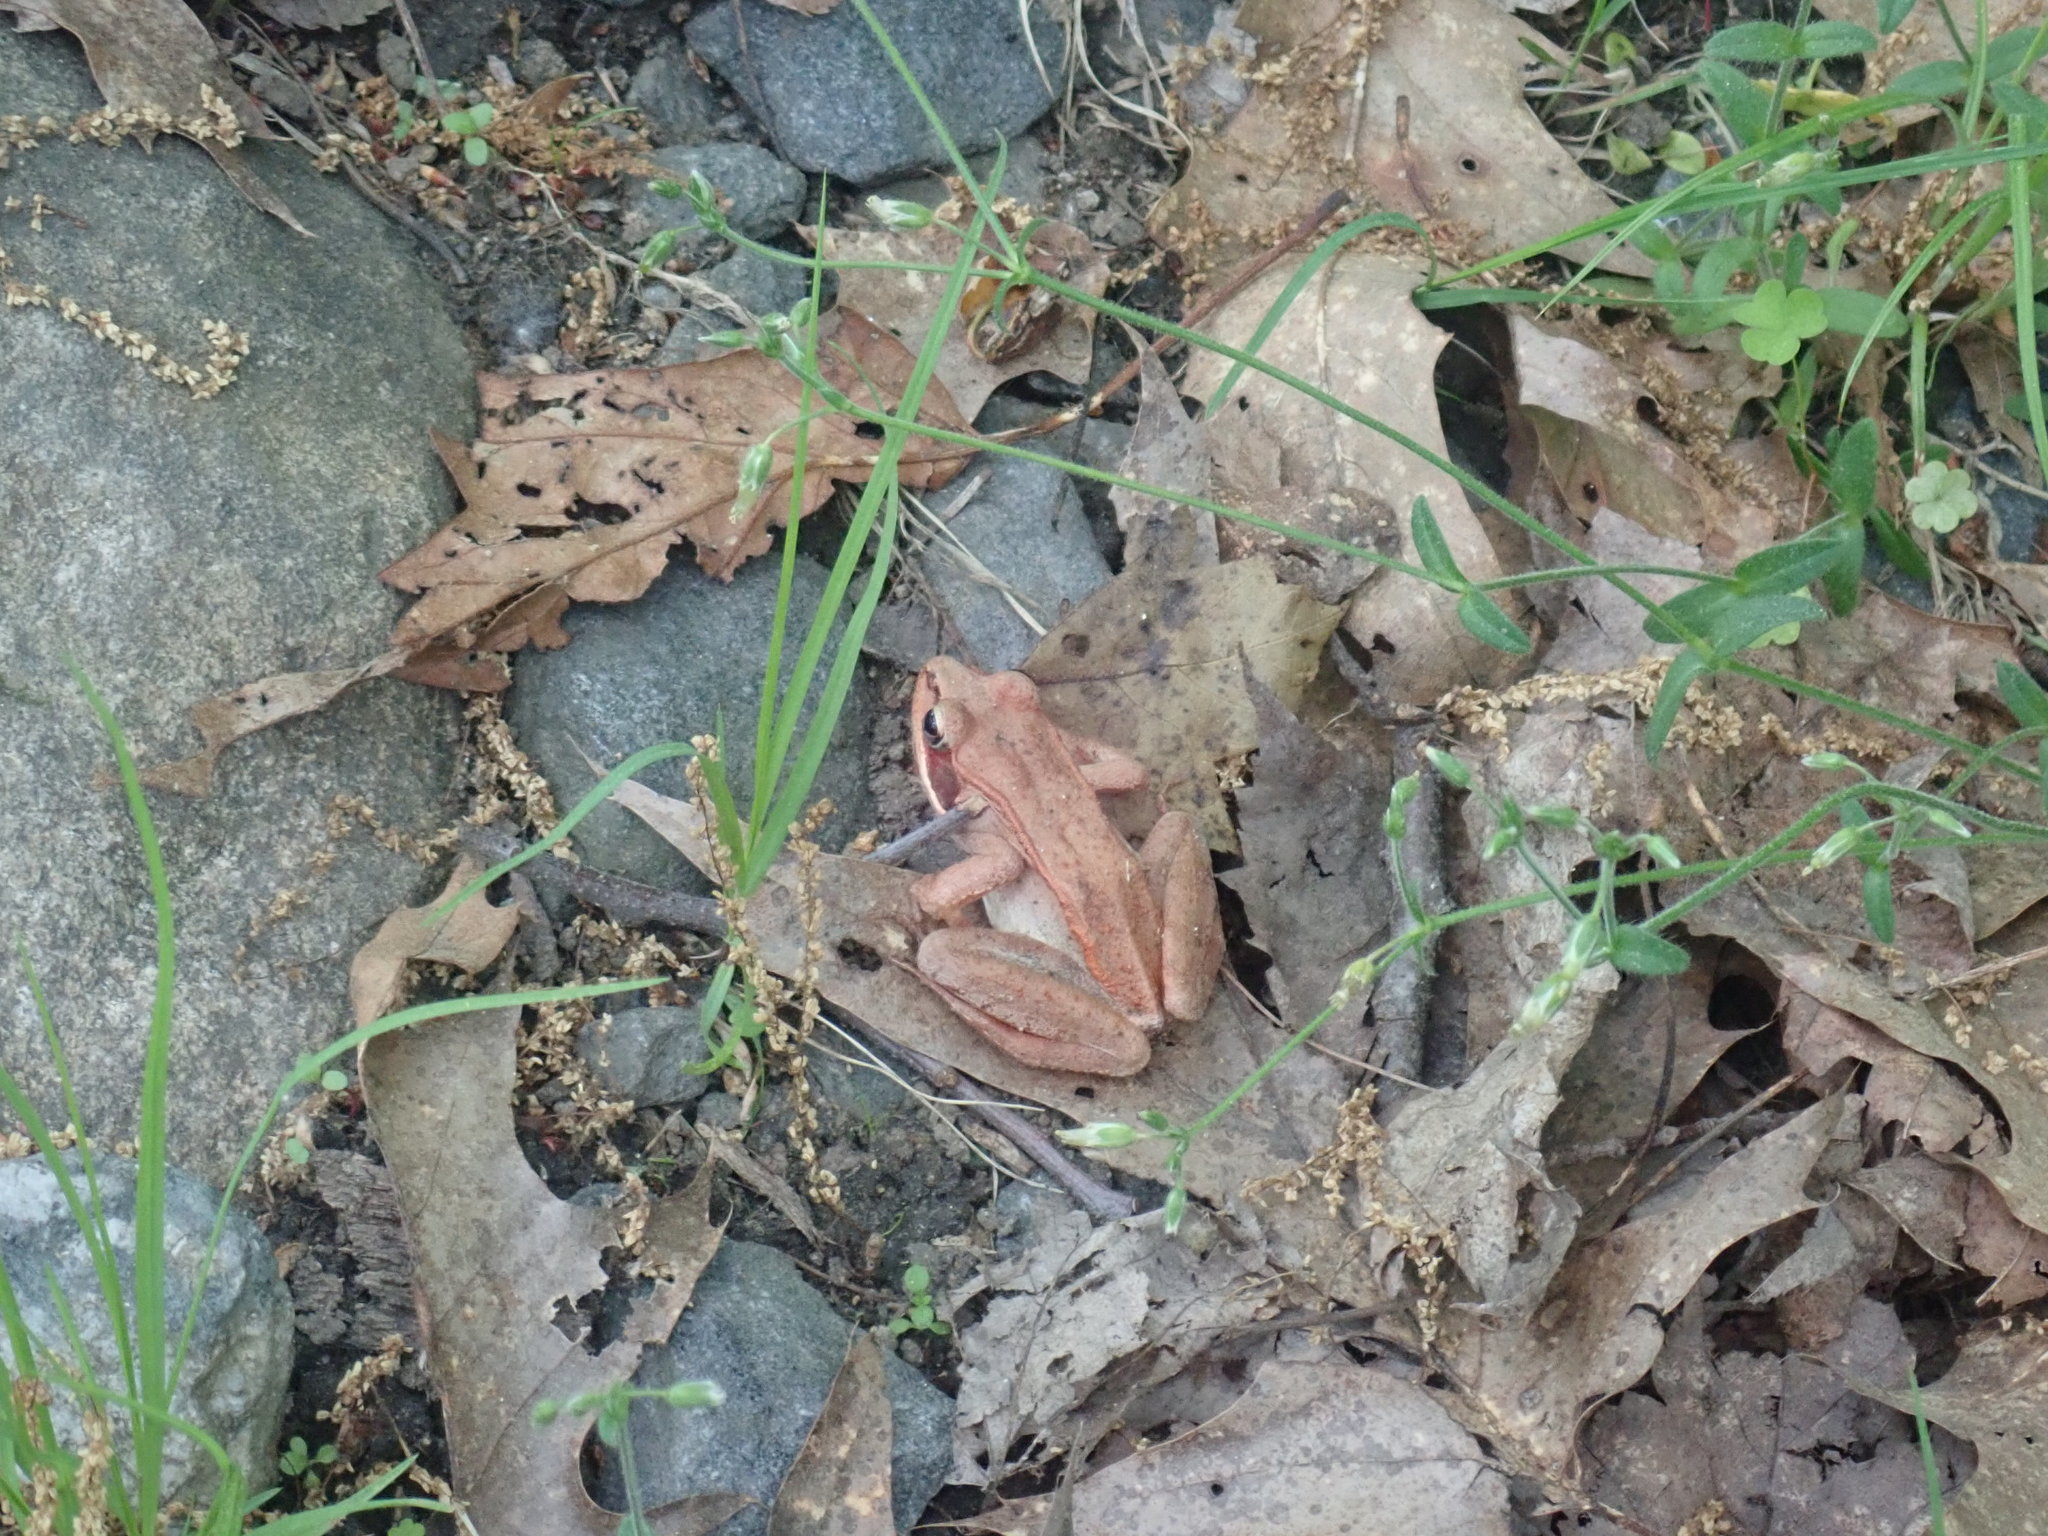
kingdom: Animalia
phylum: Chordata
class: Amphibia
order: Anura
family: Ranidae
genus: Lithobates
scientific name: Lithobates sylvaticus
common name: Wood frog
